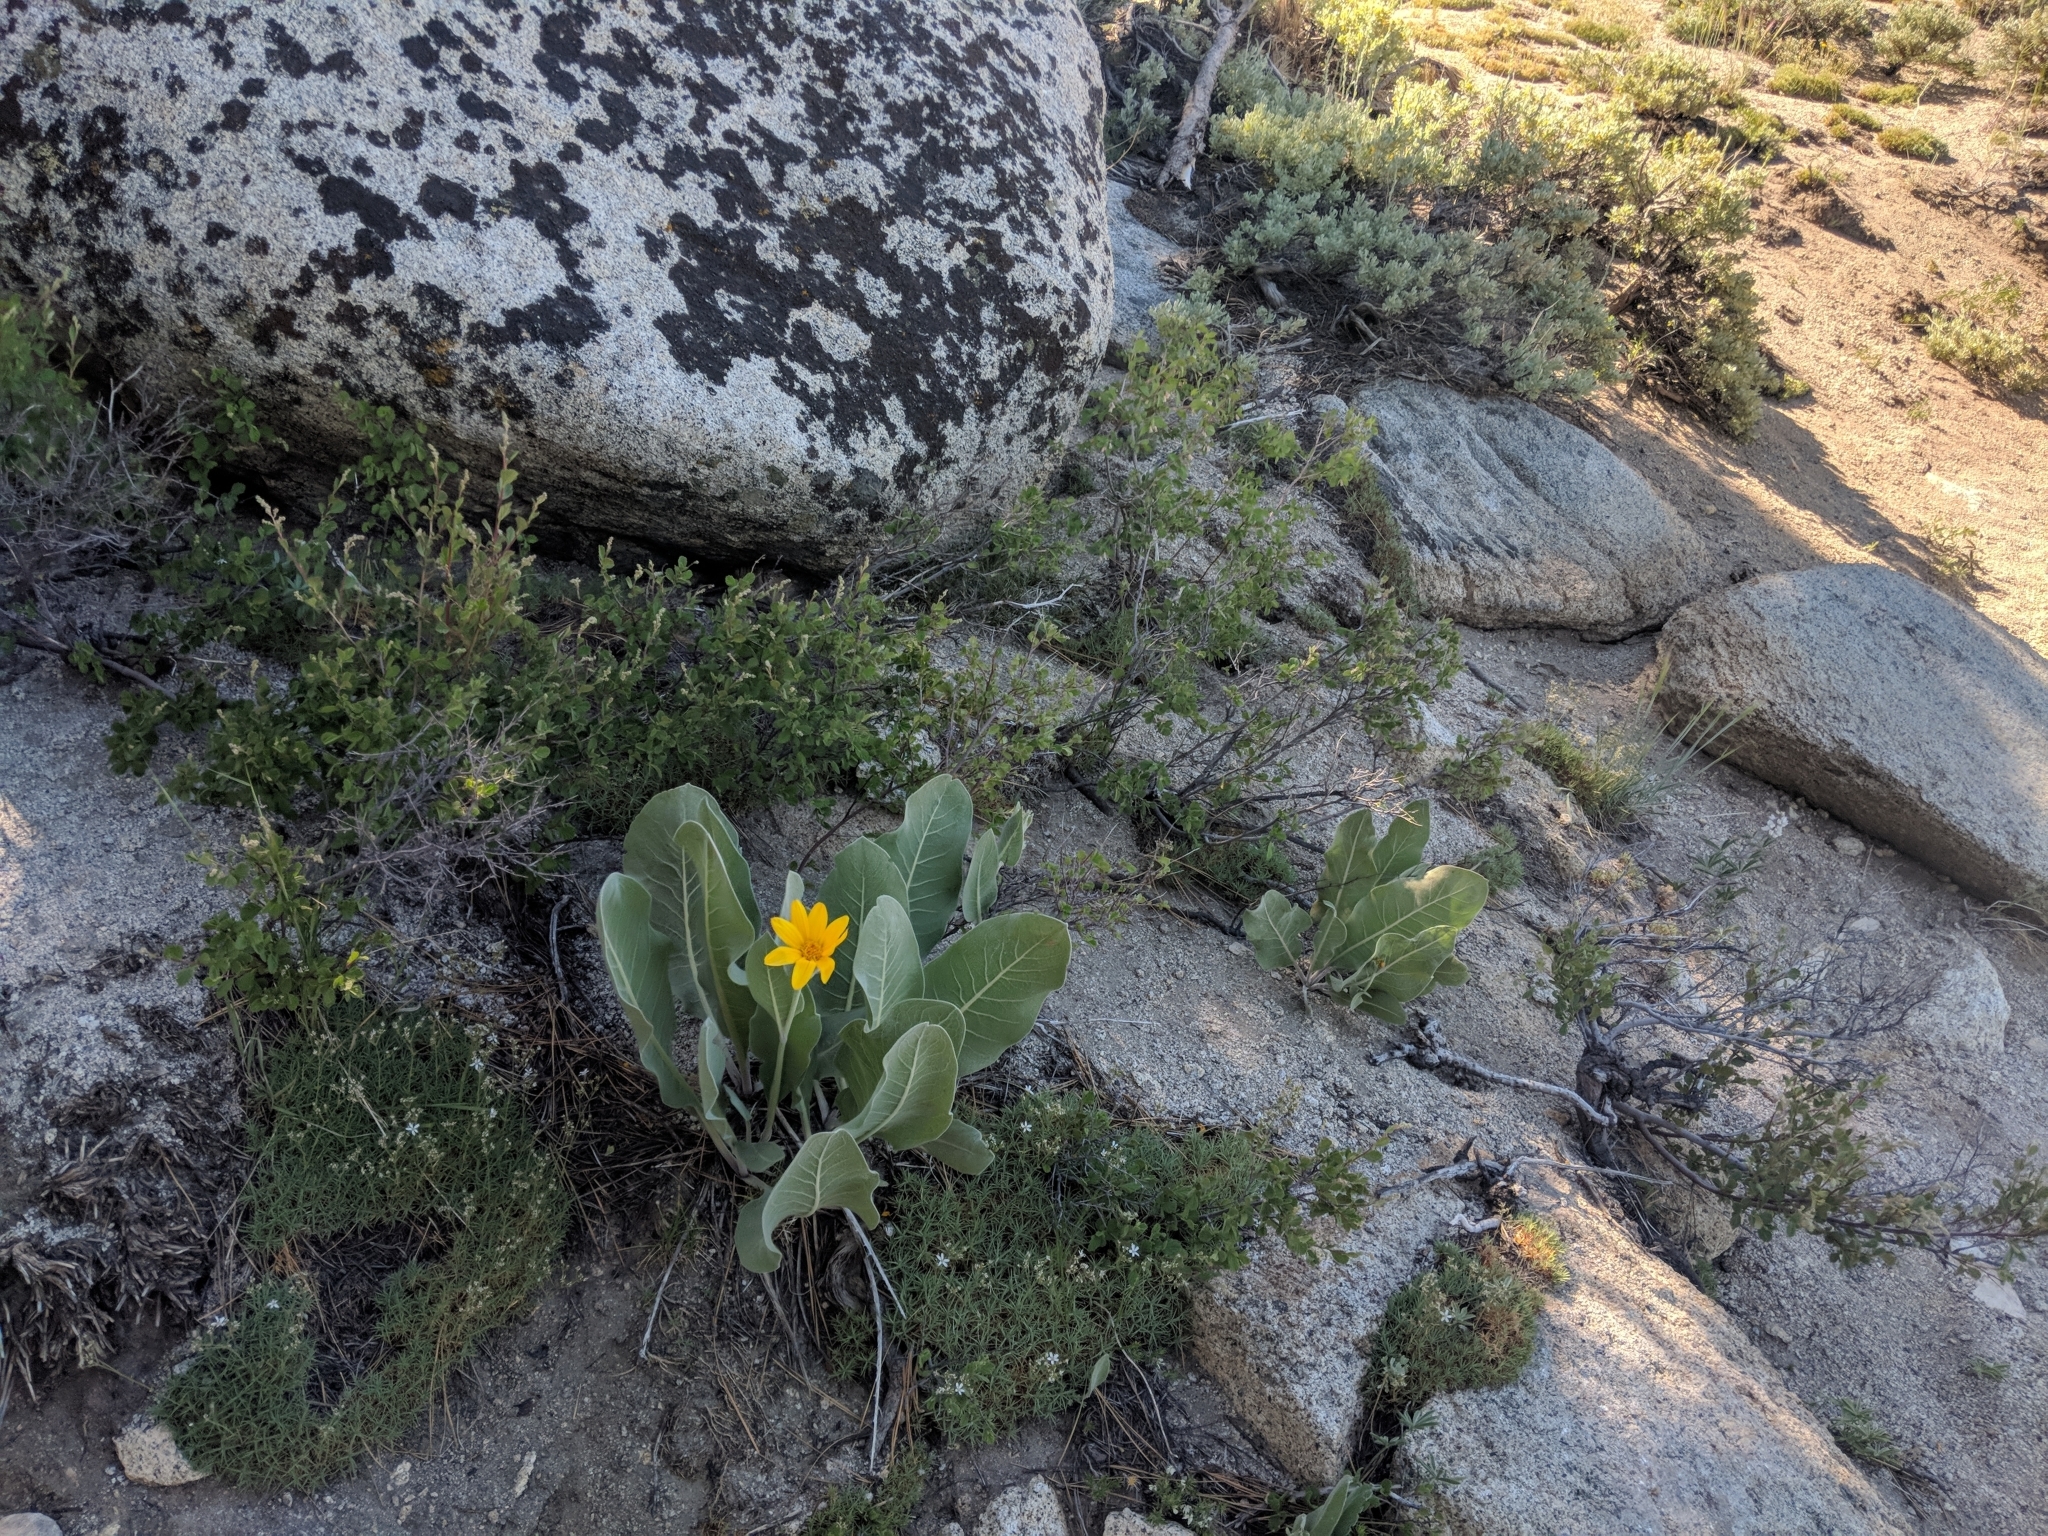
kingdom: Plantae
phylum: Tracheophyta
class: Magnoliopsida
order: Asterales
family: Asteraceae
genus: Wyethia
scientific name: Wyethia mollis
